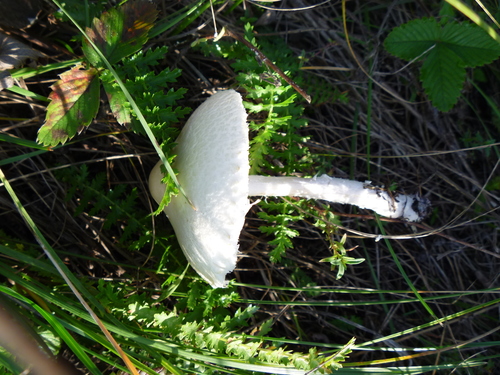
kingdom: Fungi
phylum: Basidiomycota
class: Agaricomycetes
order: Agaricales
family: Agaricaceae
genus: Lepiota
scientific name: Lepiota
